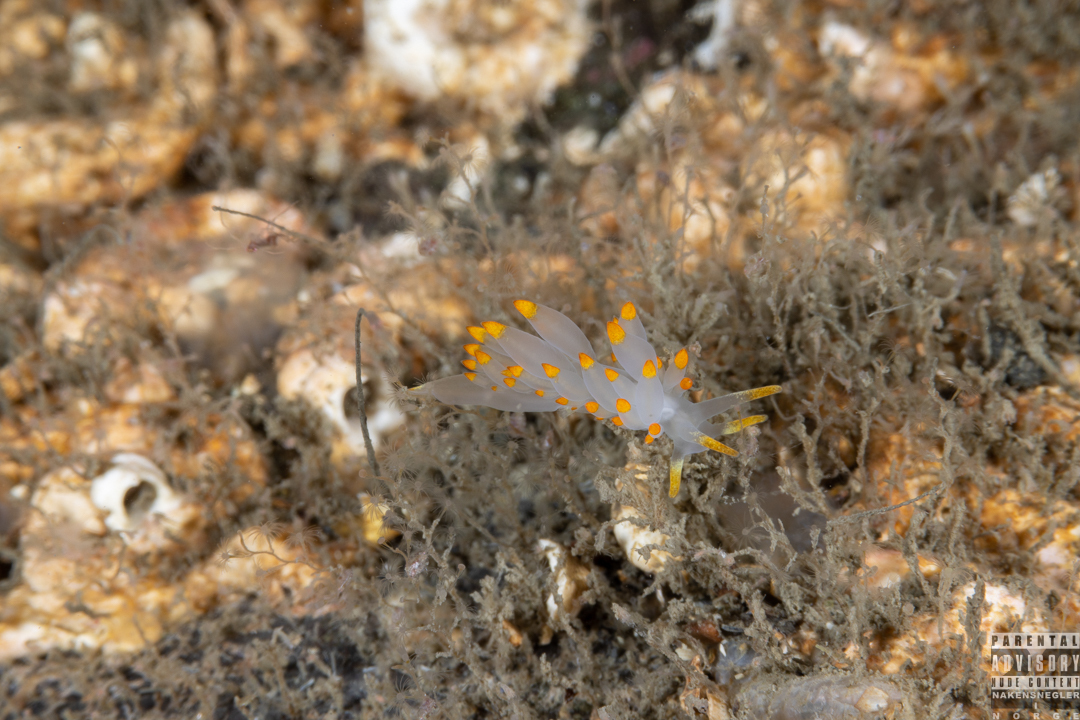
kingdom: Animalia
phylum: Mollusca
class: Gastropoda
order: Nudibranchia
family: Eubranchidae
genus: Amphorina
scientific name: Amphorina farrani
